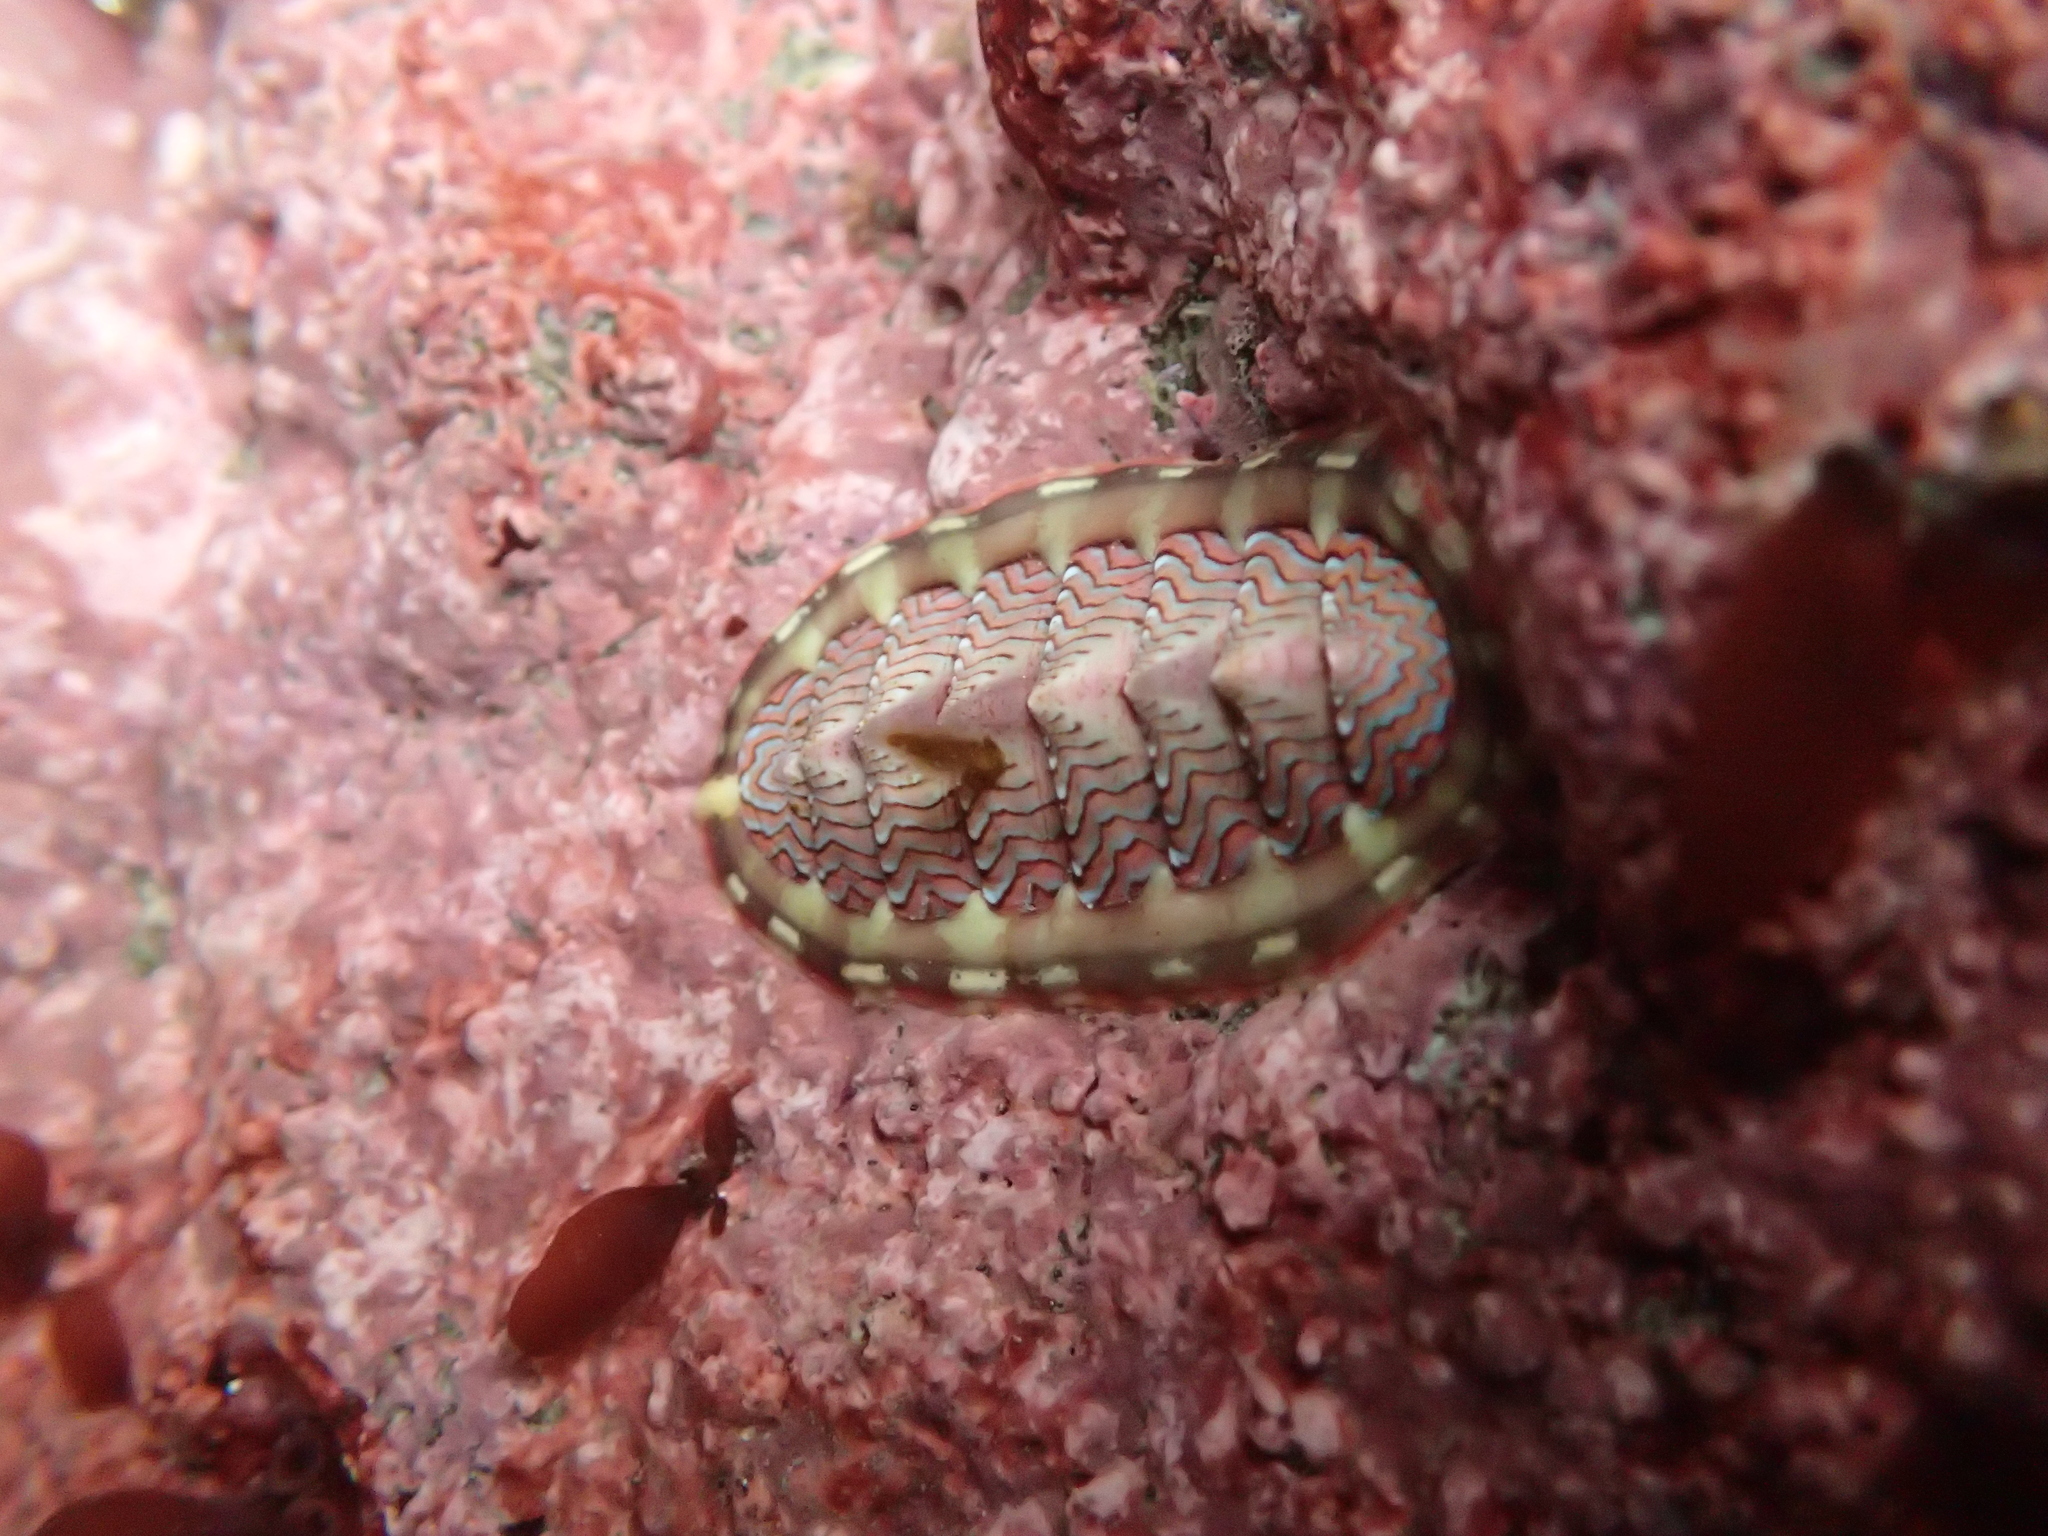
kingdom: Animalia
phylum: Mollusca
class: Polyplacophora
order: Chitonida
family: Tonicellidae
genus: Tonicella
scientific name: Tonicella lokii
